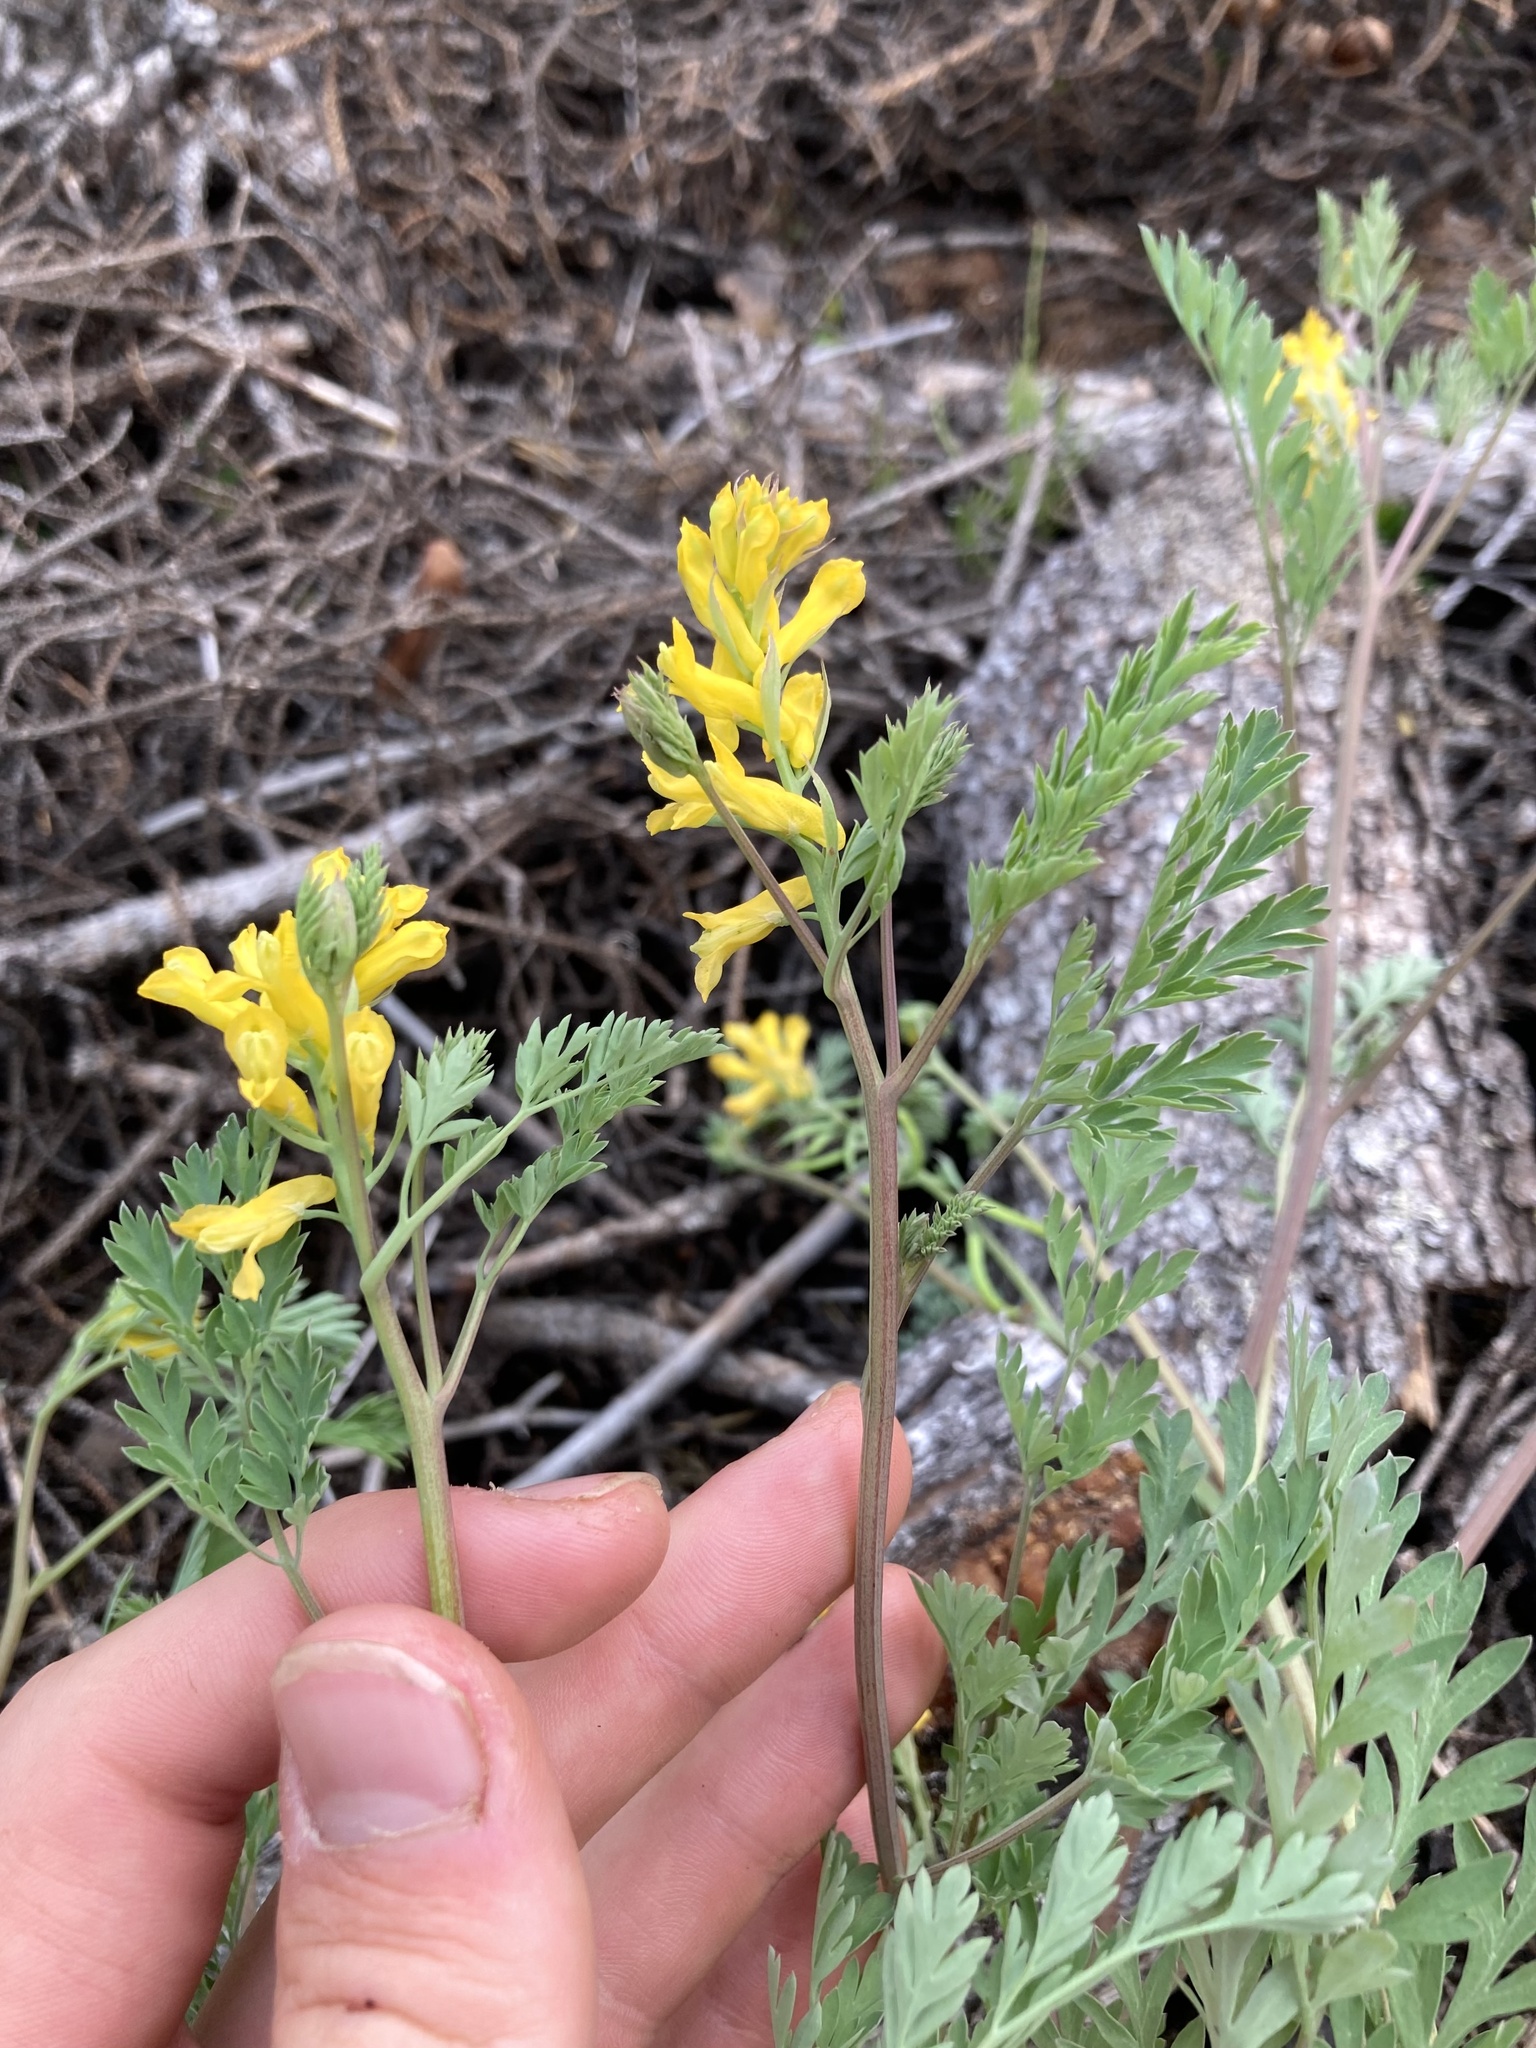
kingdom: Plantae
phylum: Tracheophyta
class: Magnoliopsida
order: Ranunculales
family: Papaveraceae
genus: Corydalis
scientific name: Corydalis aurea
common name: Golden corydalis
